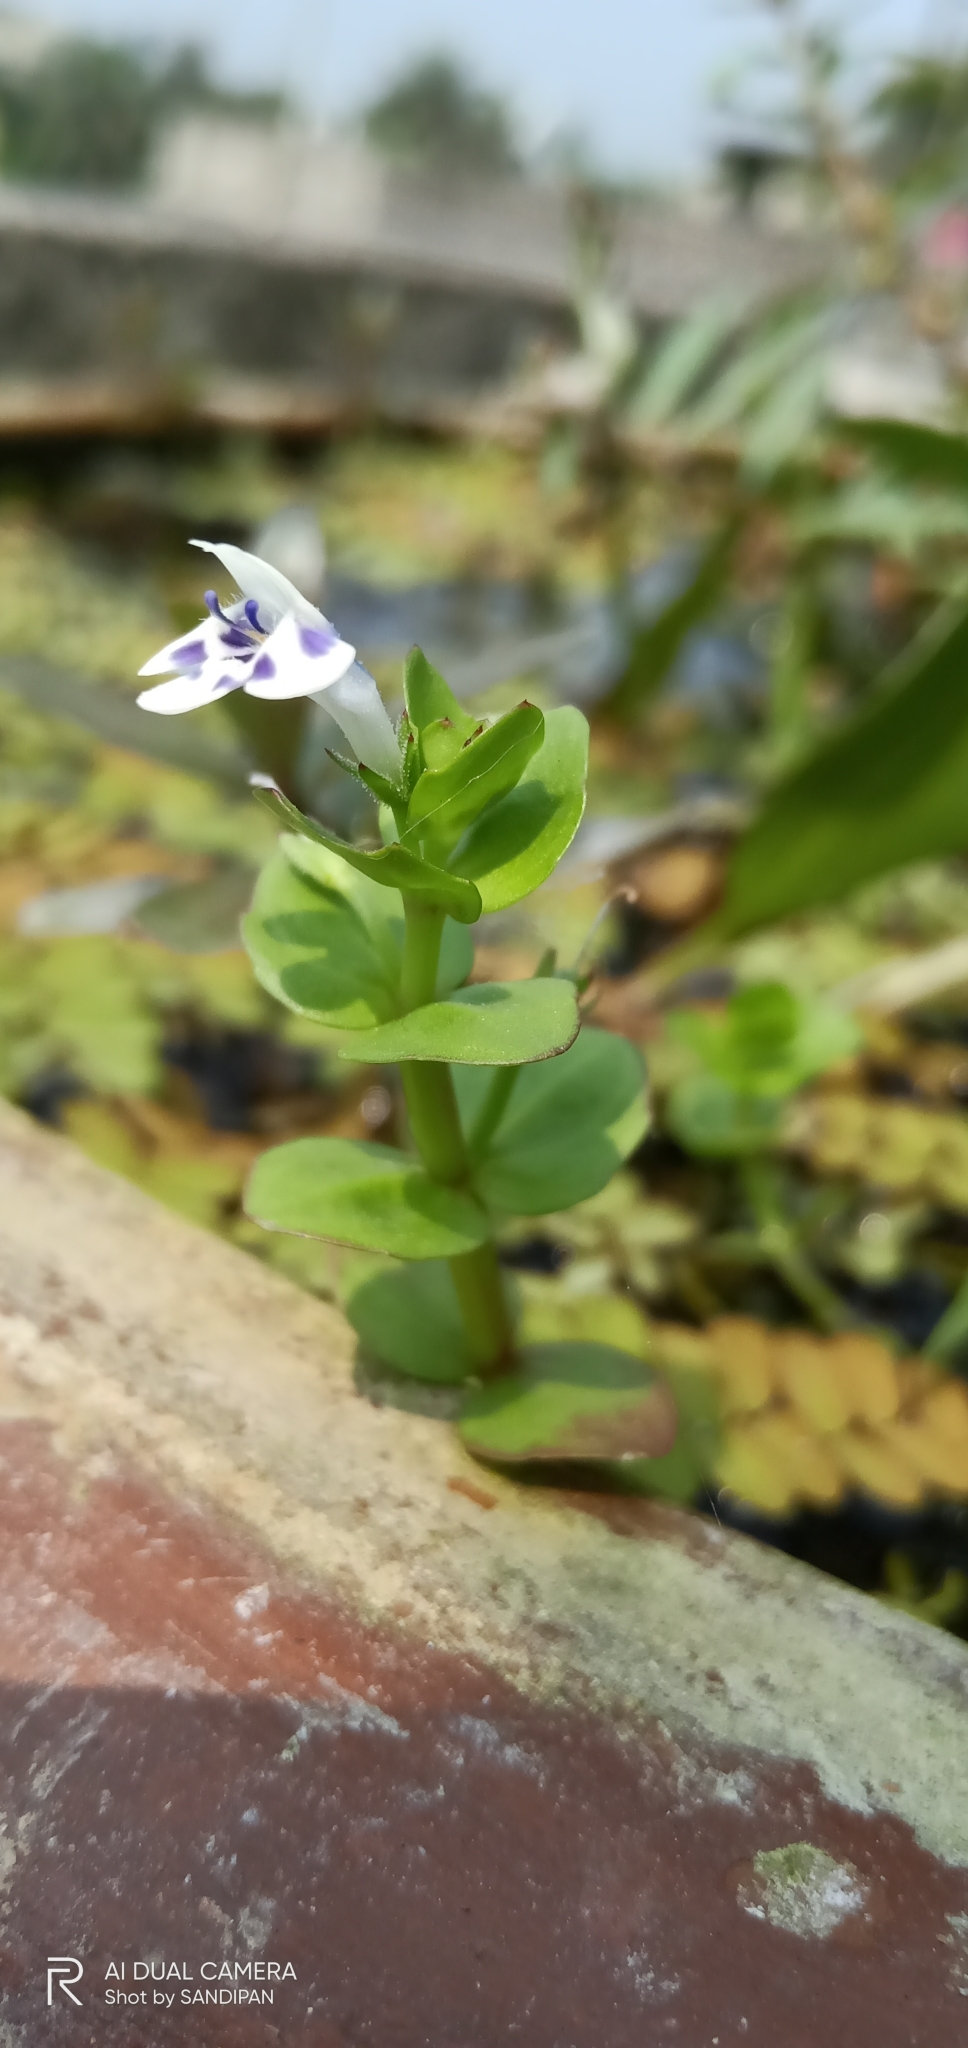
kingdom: Plantae
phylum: Tracheophyta
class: Magnoliopsida
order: Lamiales
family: Linderniaceae
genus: Lindernia
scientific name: Lindernia rotundifolia
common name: Baby’s tears
